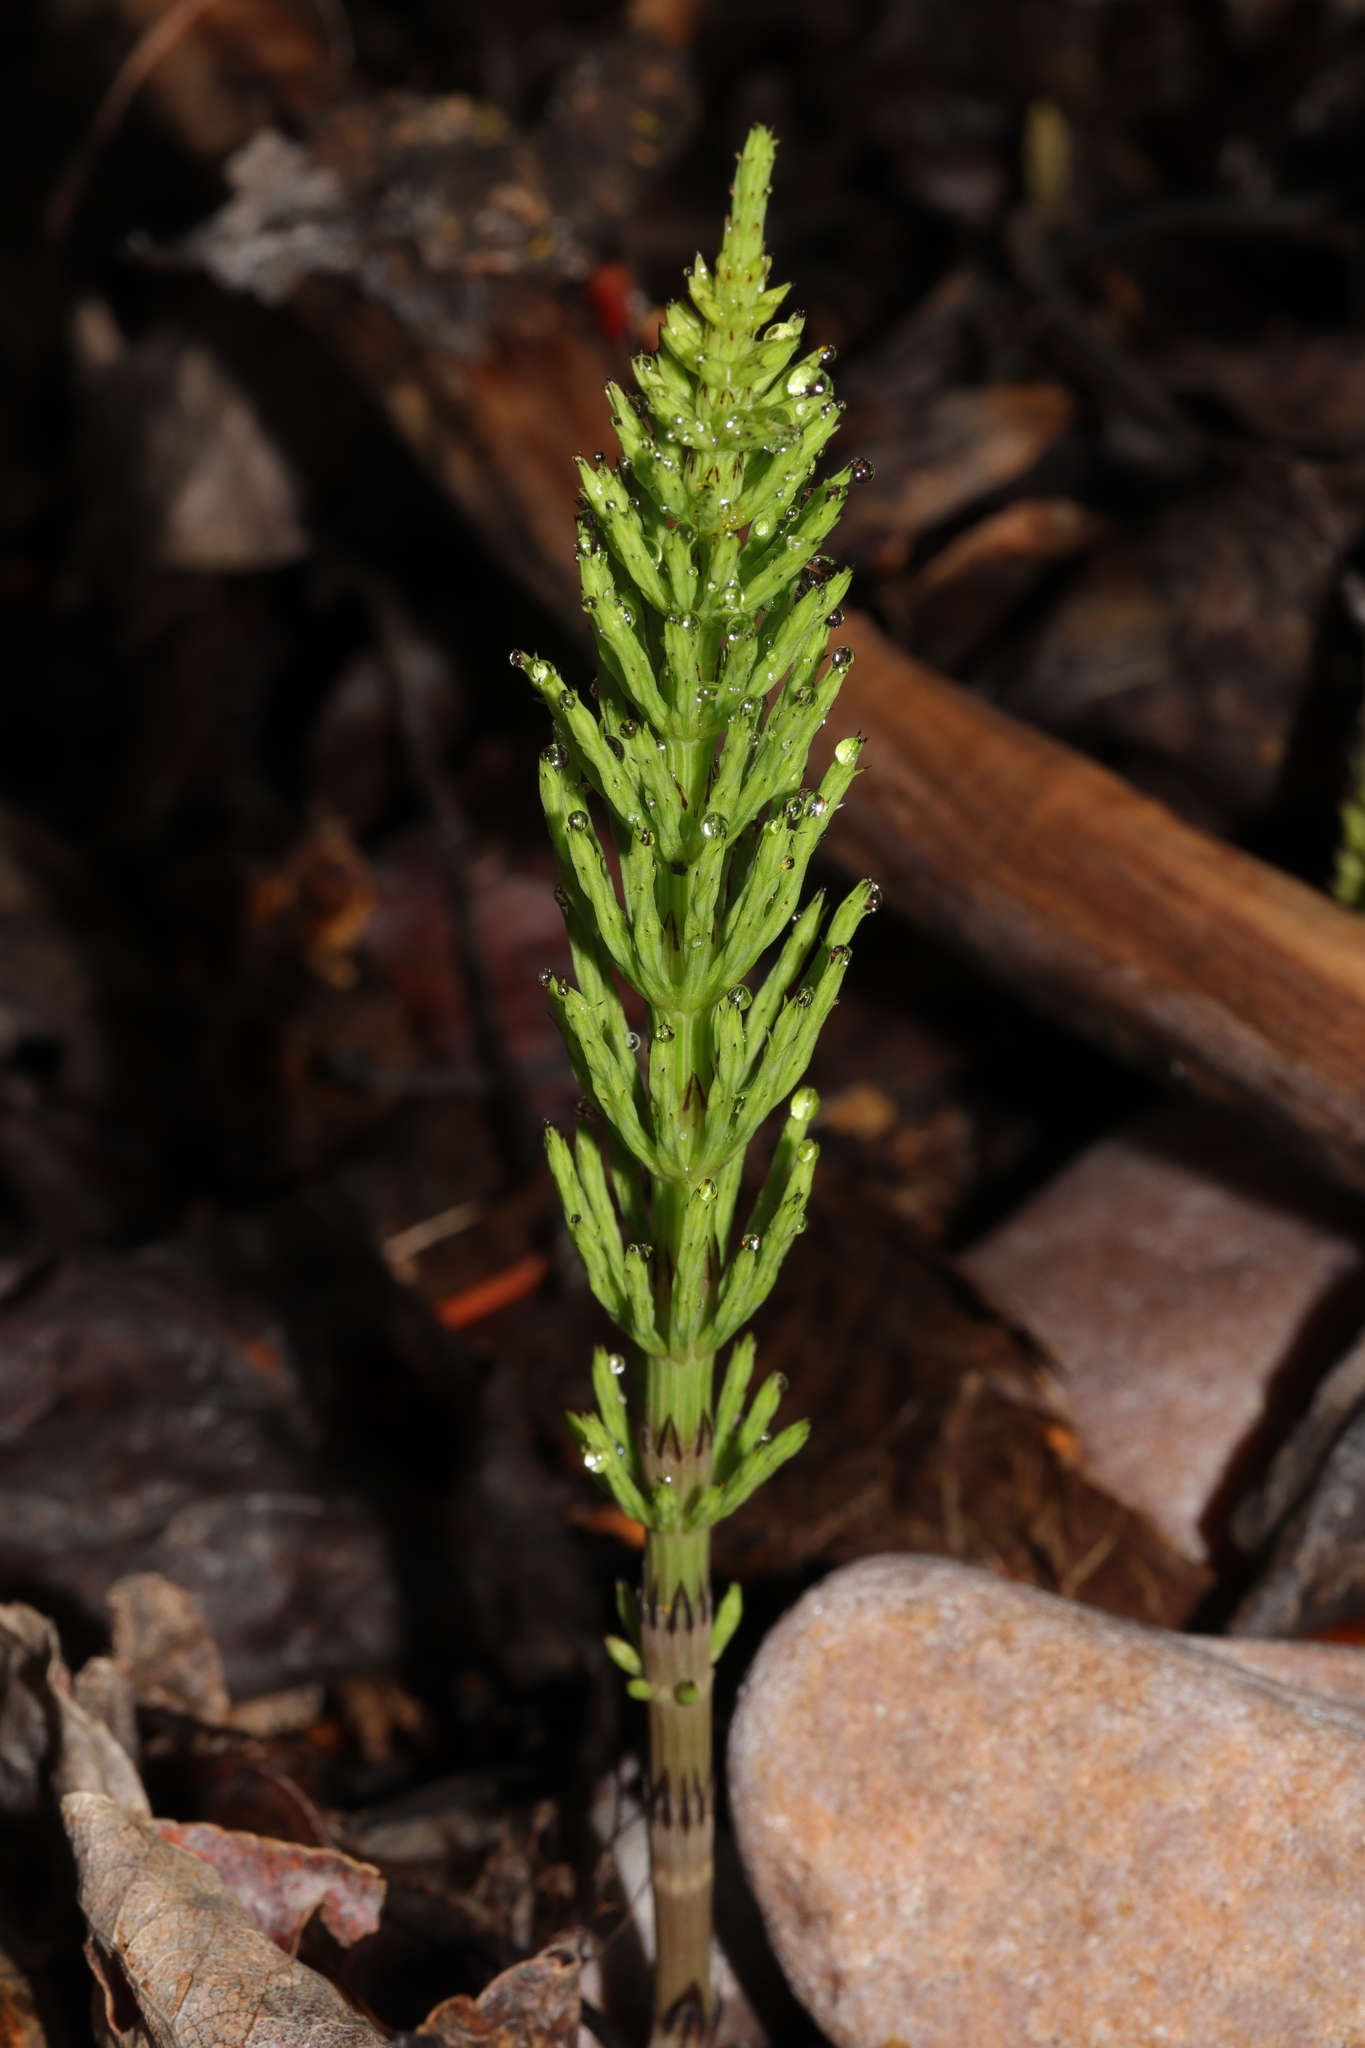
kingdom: Plantae
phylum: Tracheophyta
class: Polypodiopsida
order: Equisetales
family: Equisetaceae
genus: Equisetum
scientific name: Equisetum arvense
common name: Field horsetail
